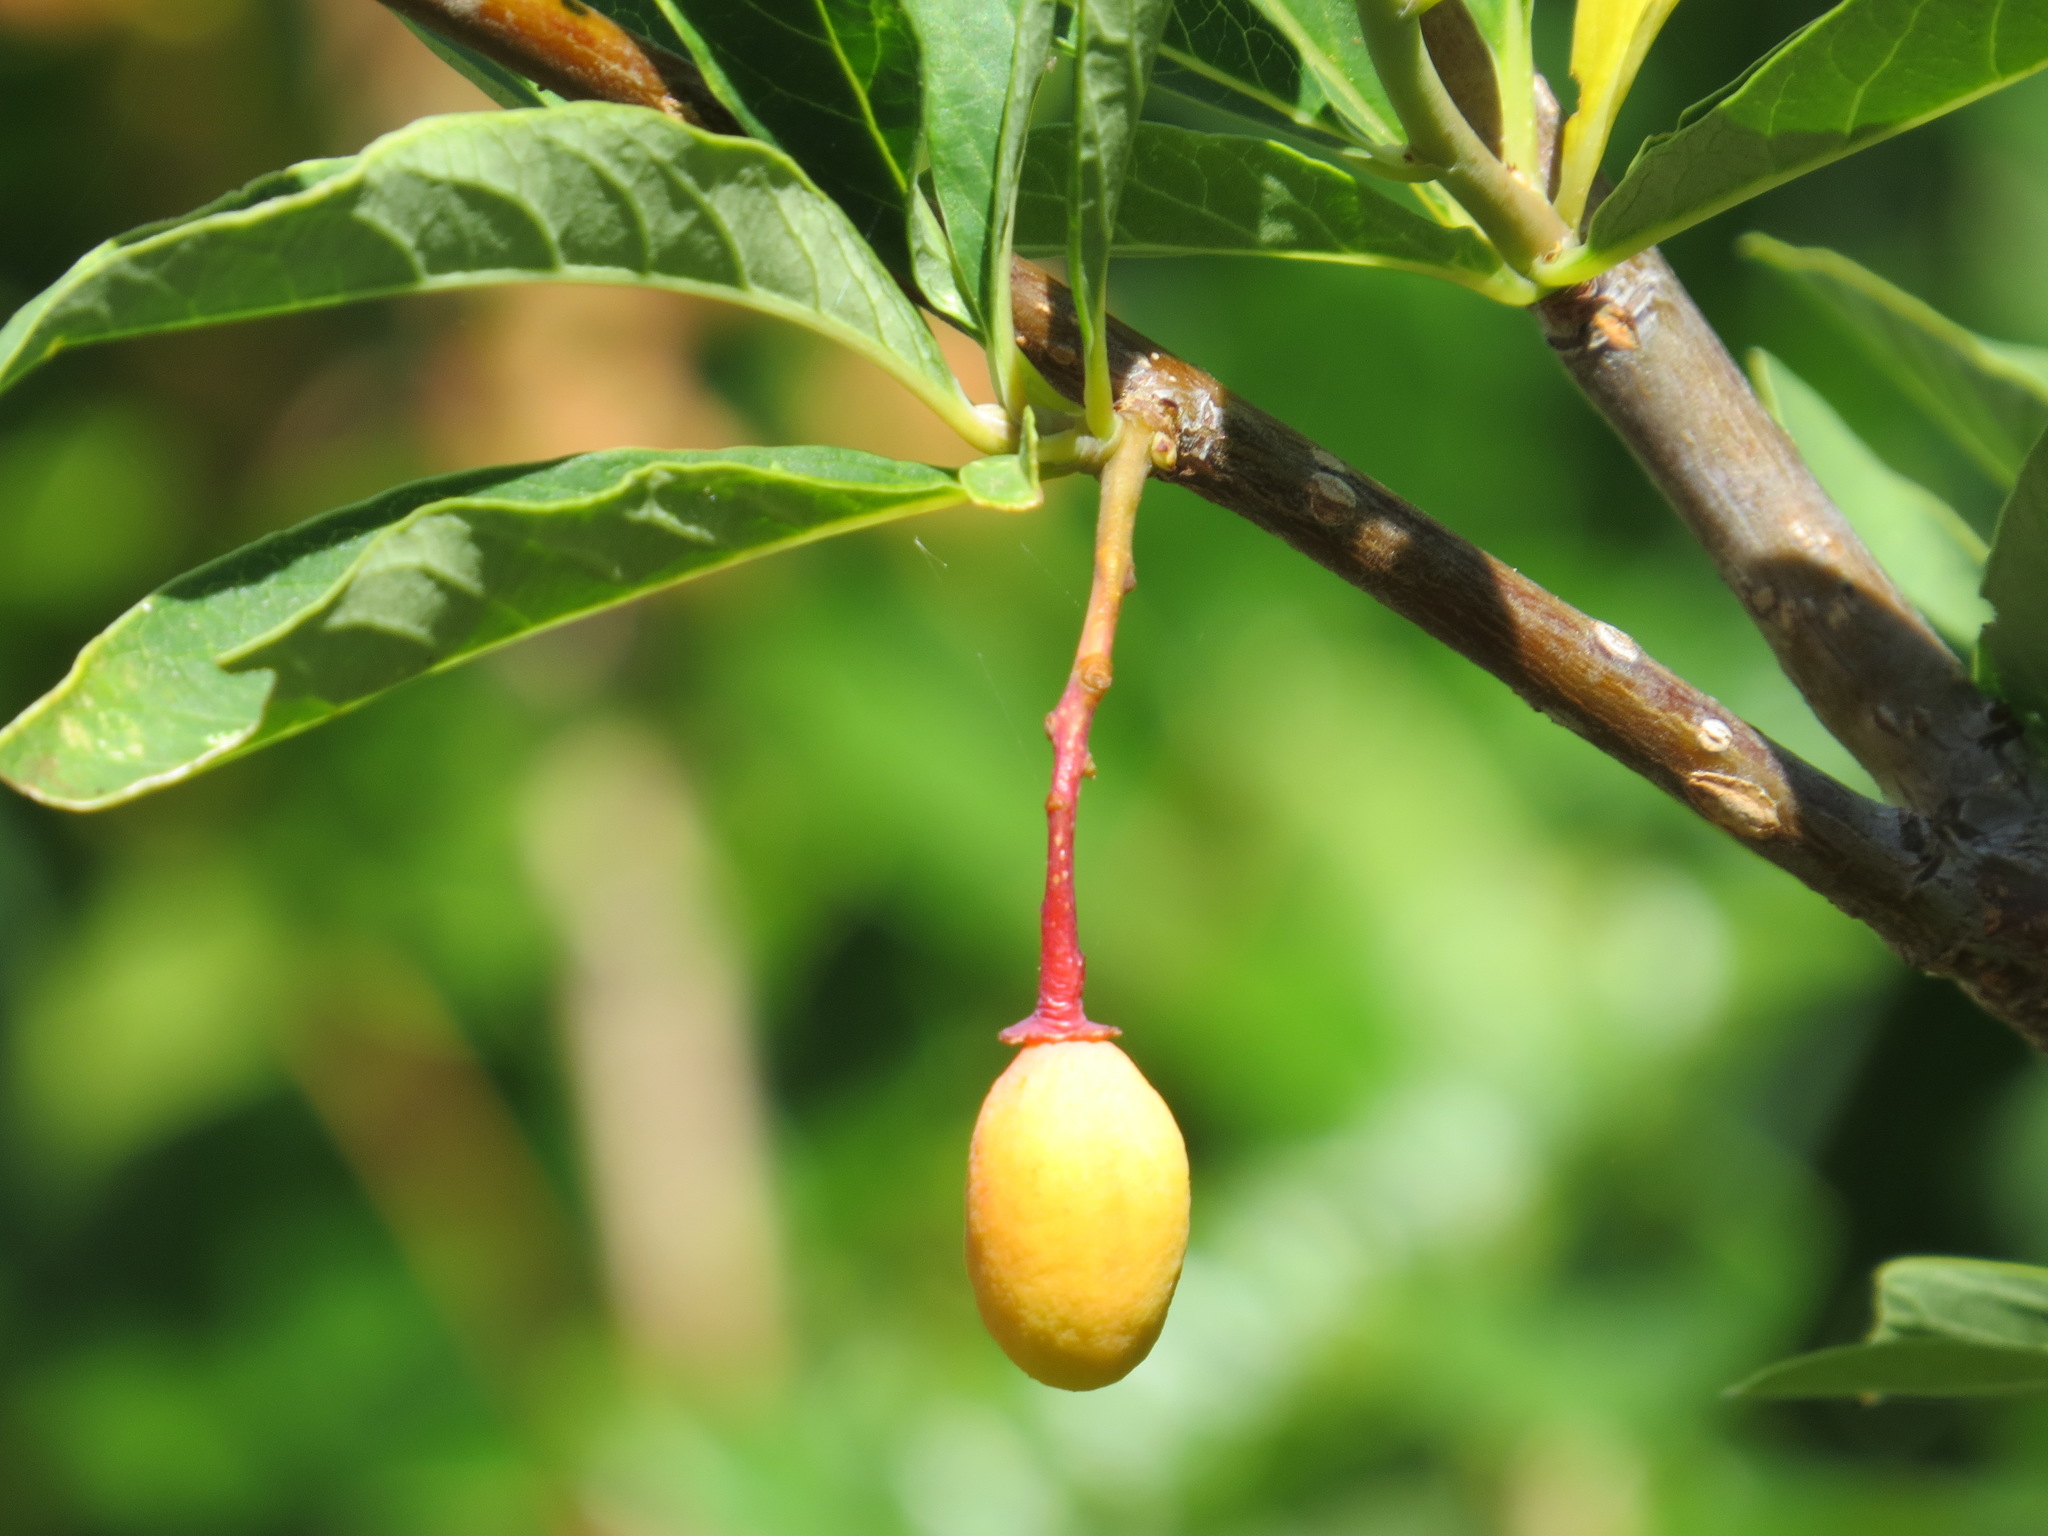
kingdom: Plantae
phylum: Tracheophyta
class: Magnoliopsida
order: Rosales
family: Rosaceae
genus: Oemleria
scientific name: Oemleria cerasiformis
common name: Osoberry
